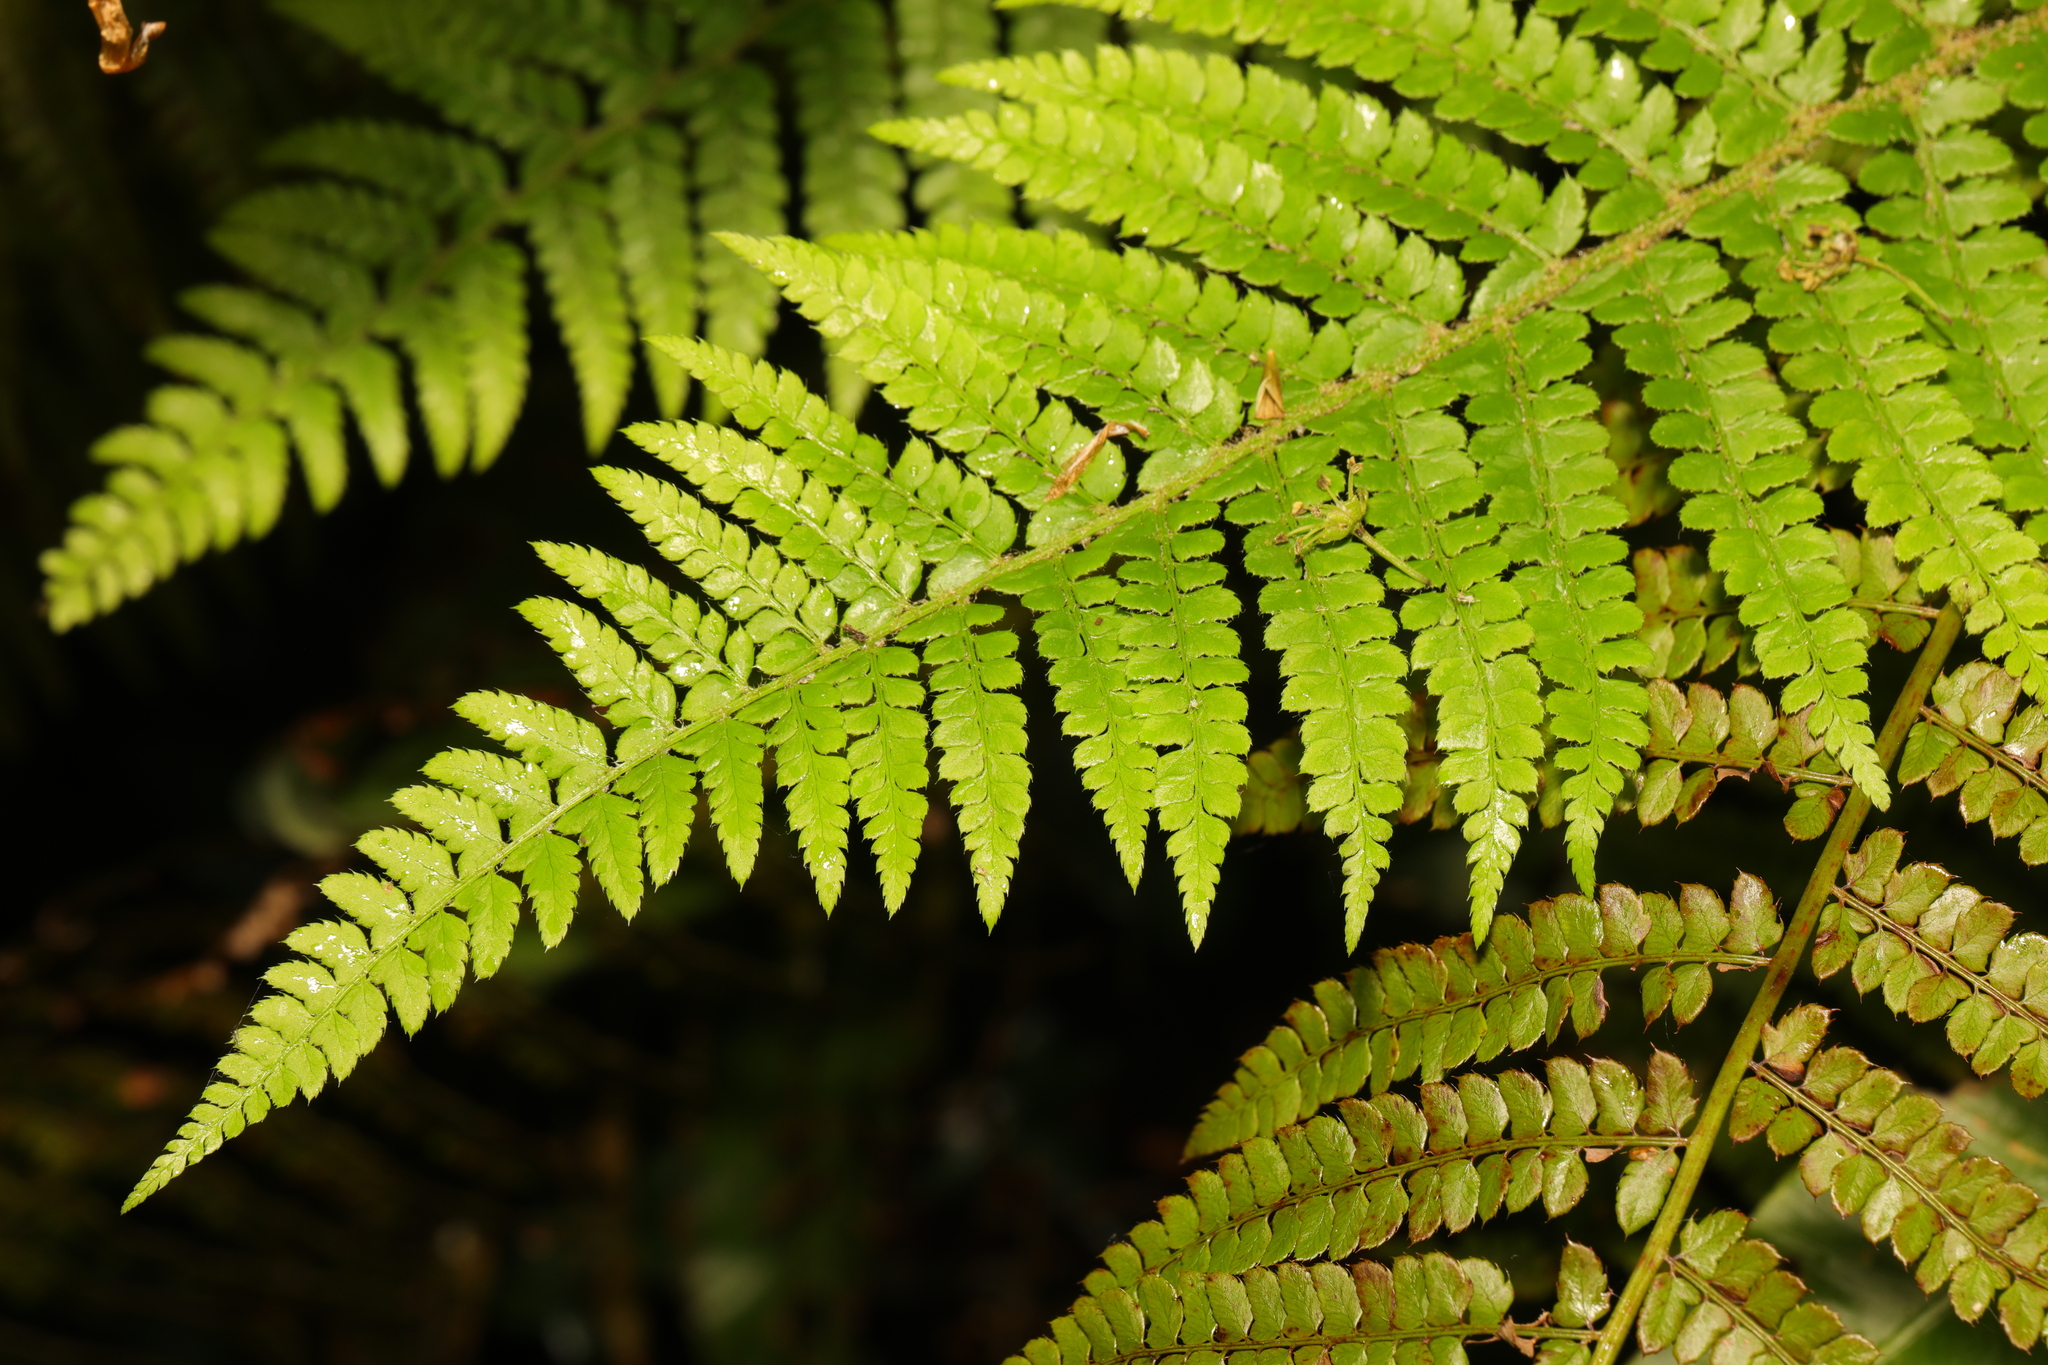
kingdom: Plantae
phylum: Tracheophyta
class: Polypodiopsida
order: Polypodiales
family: Dryopteridaceae
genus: Polystichum
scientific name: Polystichum setiferum
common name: Soft shield-fern
